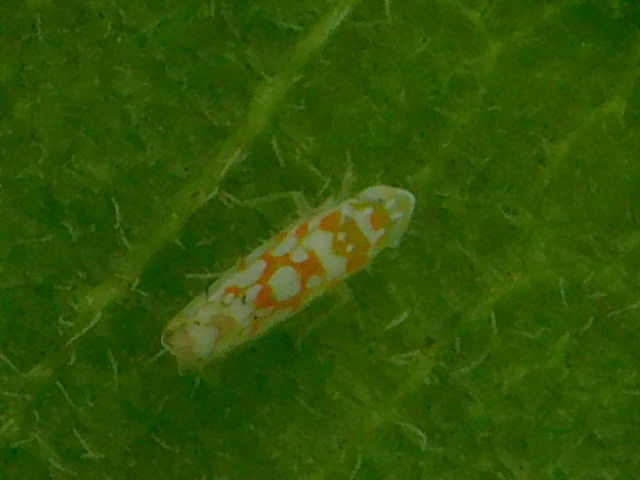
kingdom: Animalia
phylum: Arthropoda
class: Insecta
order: Hemiptera
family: Cicadellidae
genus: Protalebra
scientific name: Protalebra nexa
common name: Leafhopper
